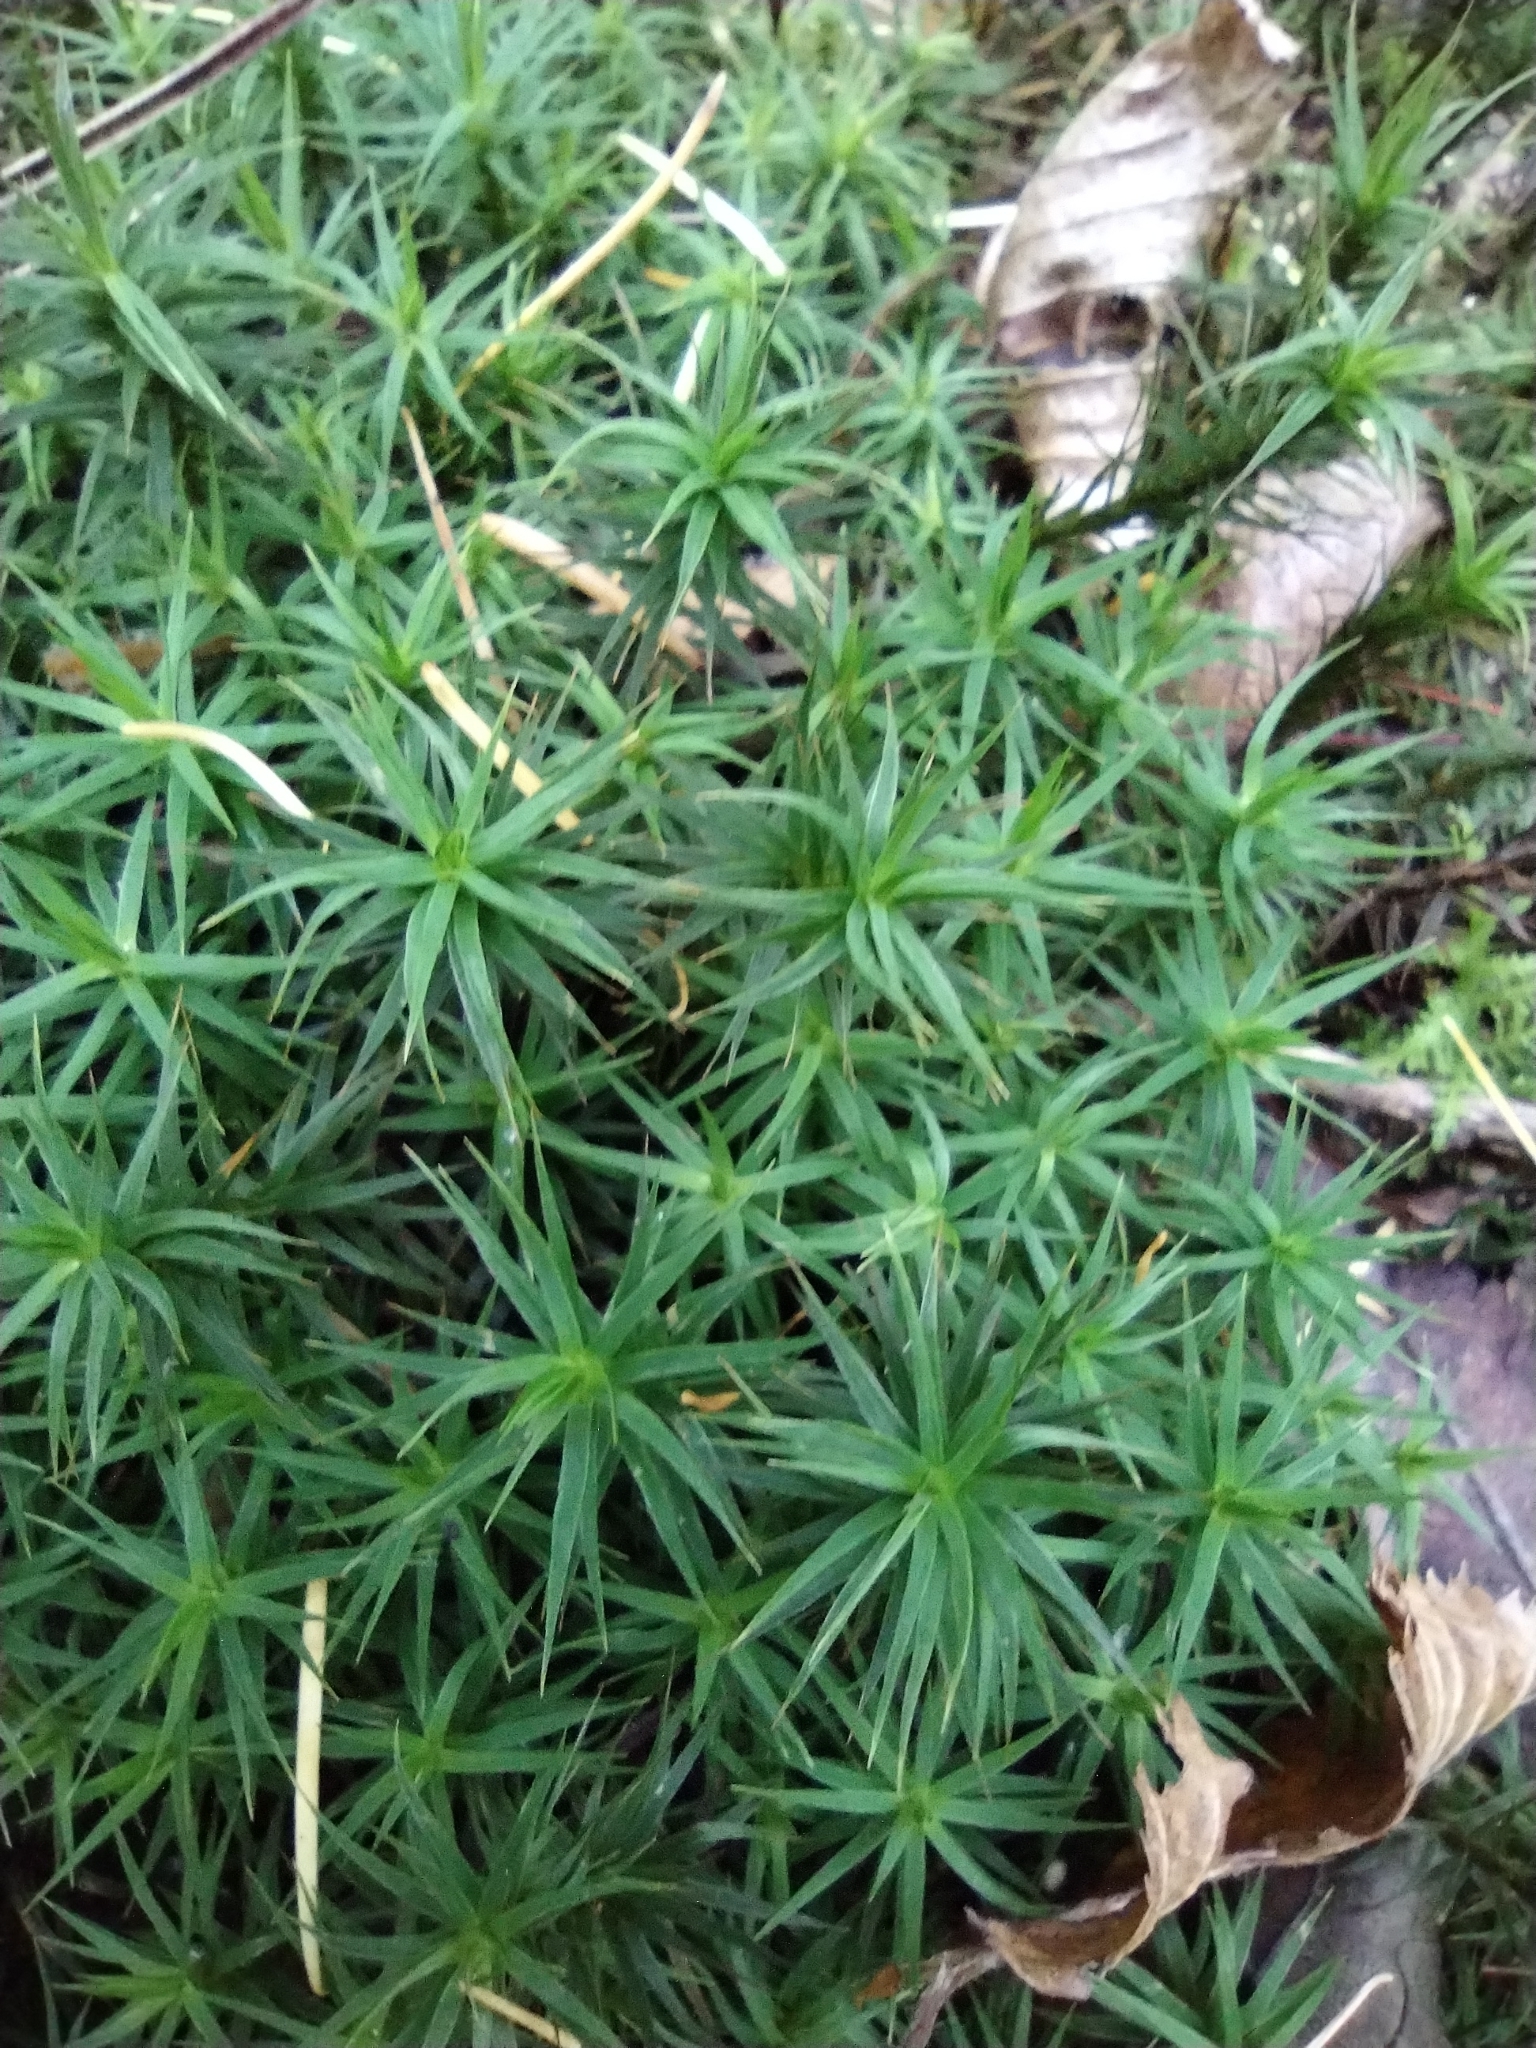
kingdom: Plantae
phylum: Bryophyta
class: Polytrichopsida
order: Polytrichales
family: Polytrichaceae
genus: Polytrichum
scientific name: Polytrichum formosum
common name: Bank haircap moss
